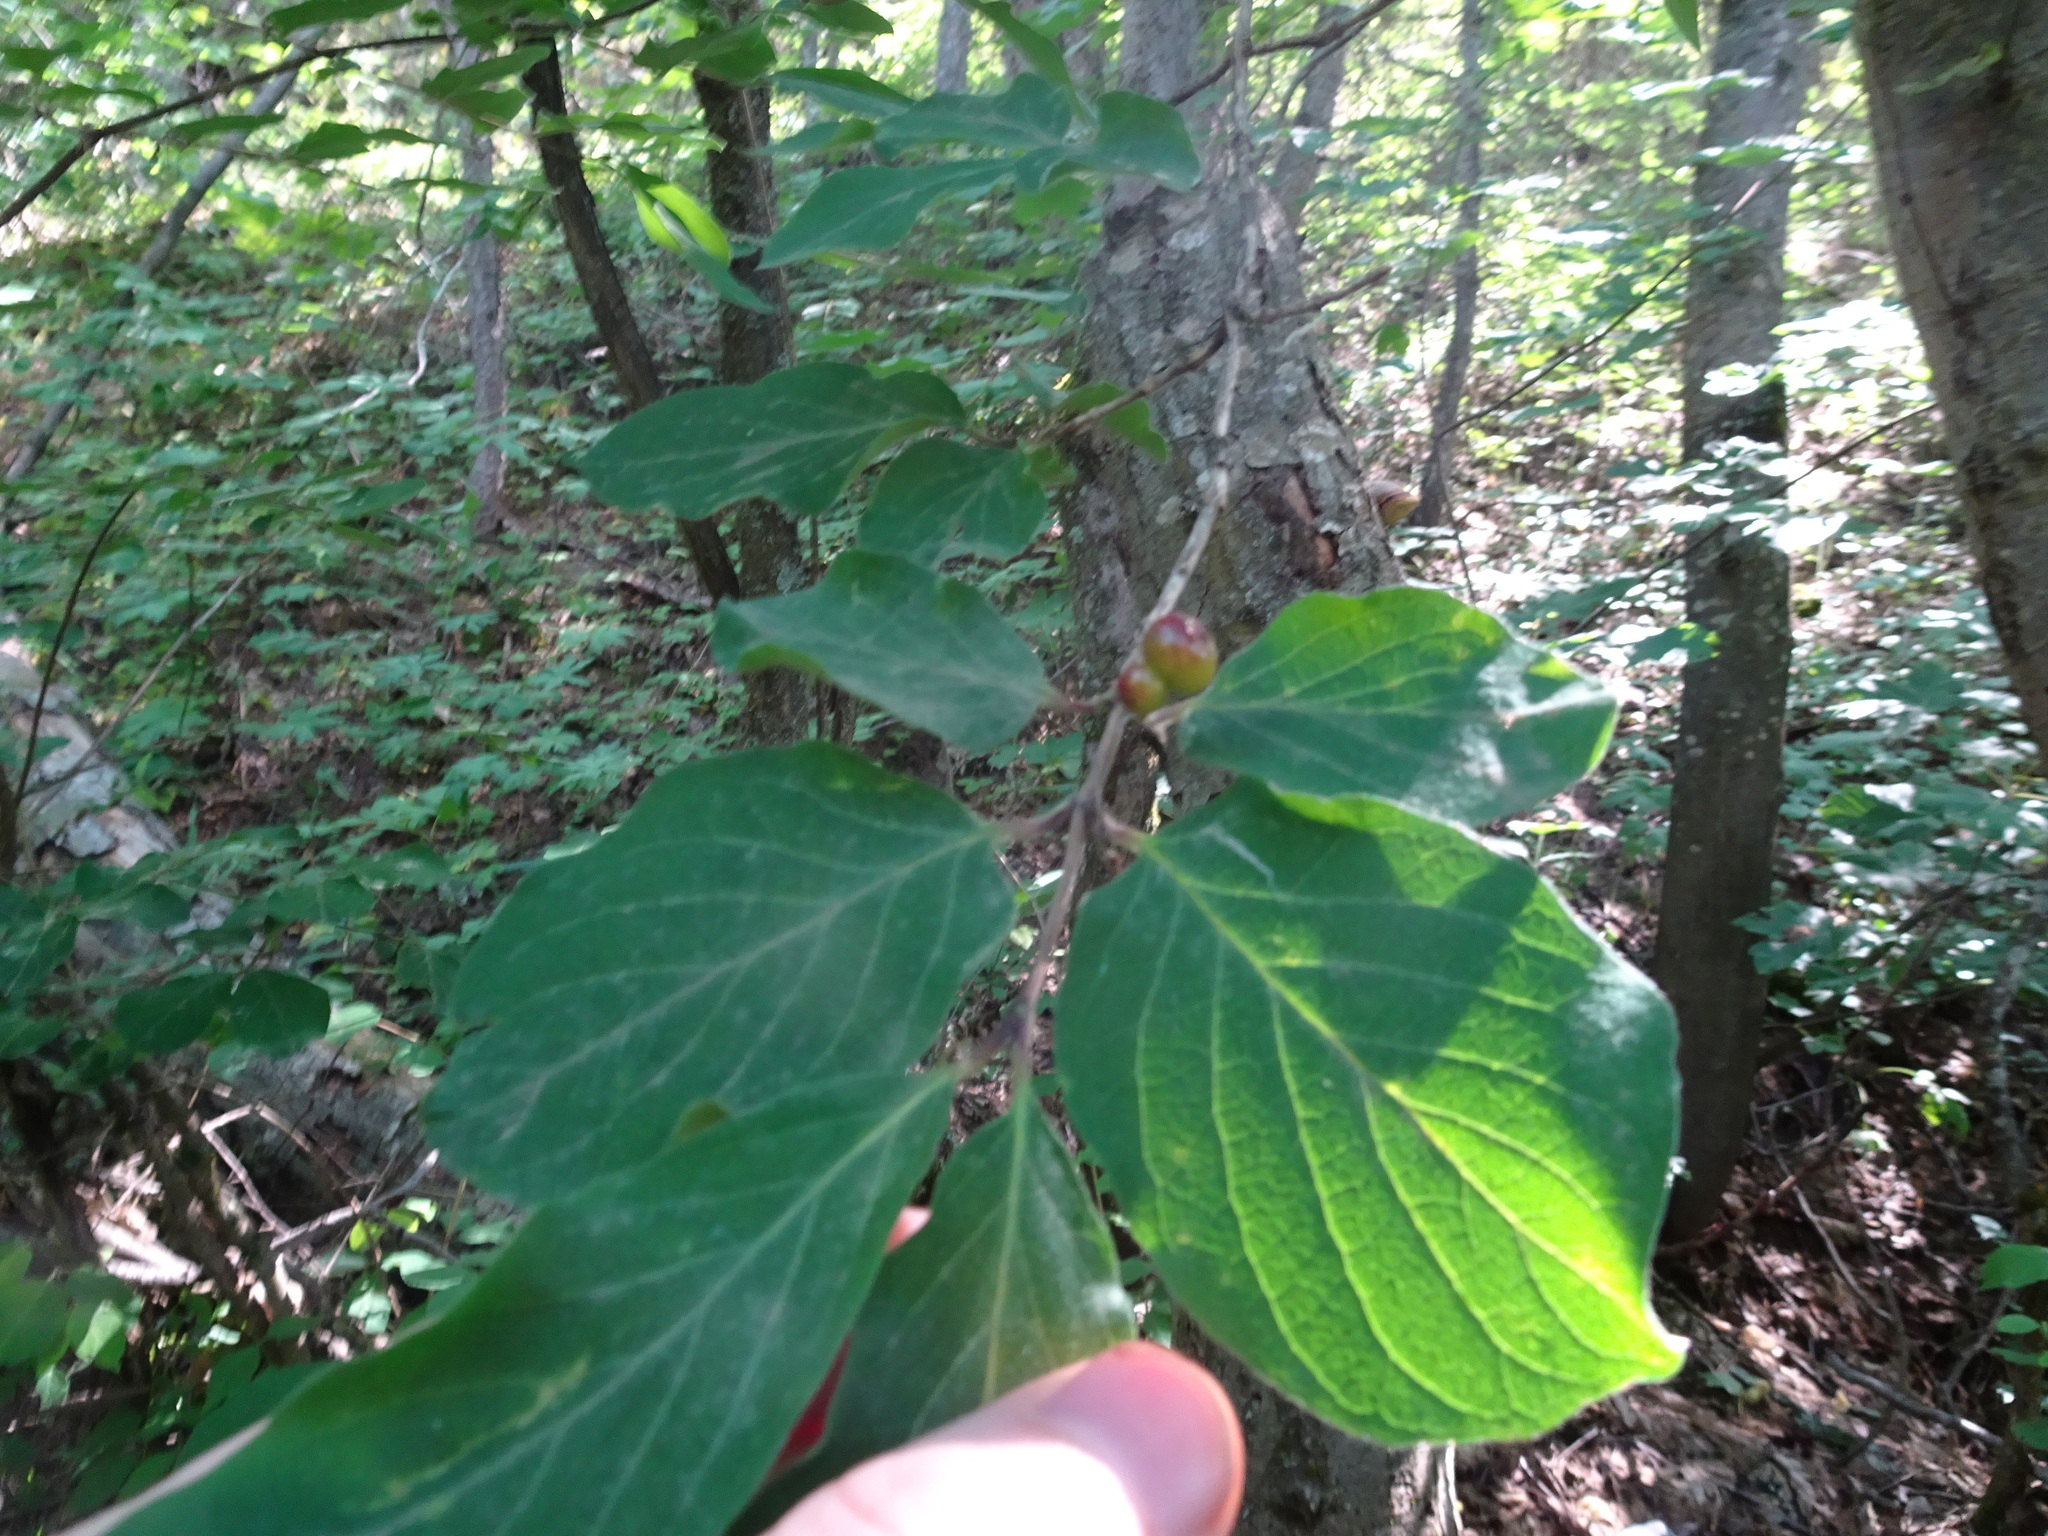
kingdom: Plantae
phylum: Tracheophyta
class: Magnoliopsida
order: Dipsacales
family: Caprifoliaceae
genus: Lonicera
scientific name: Lonicera xylosteum
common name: Fly honeysuckle
